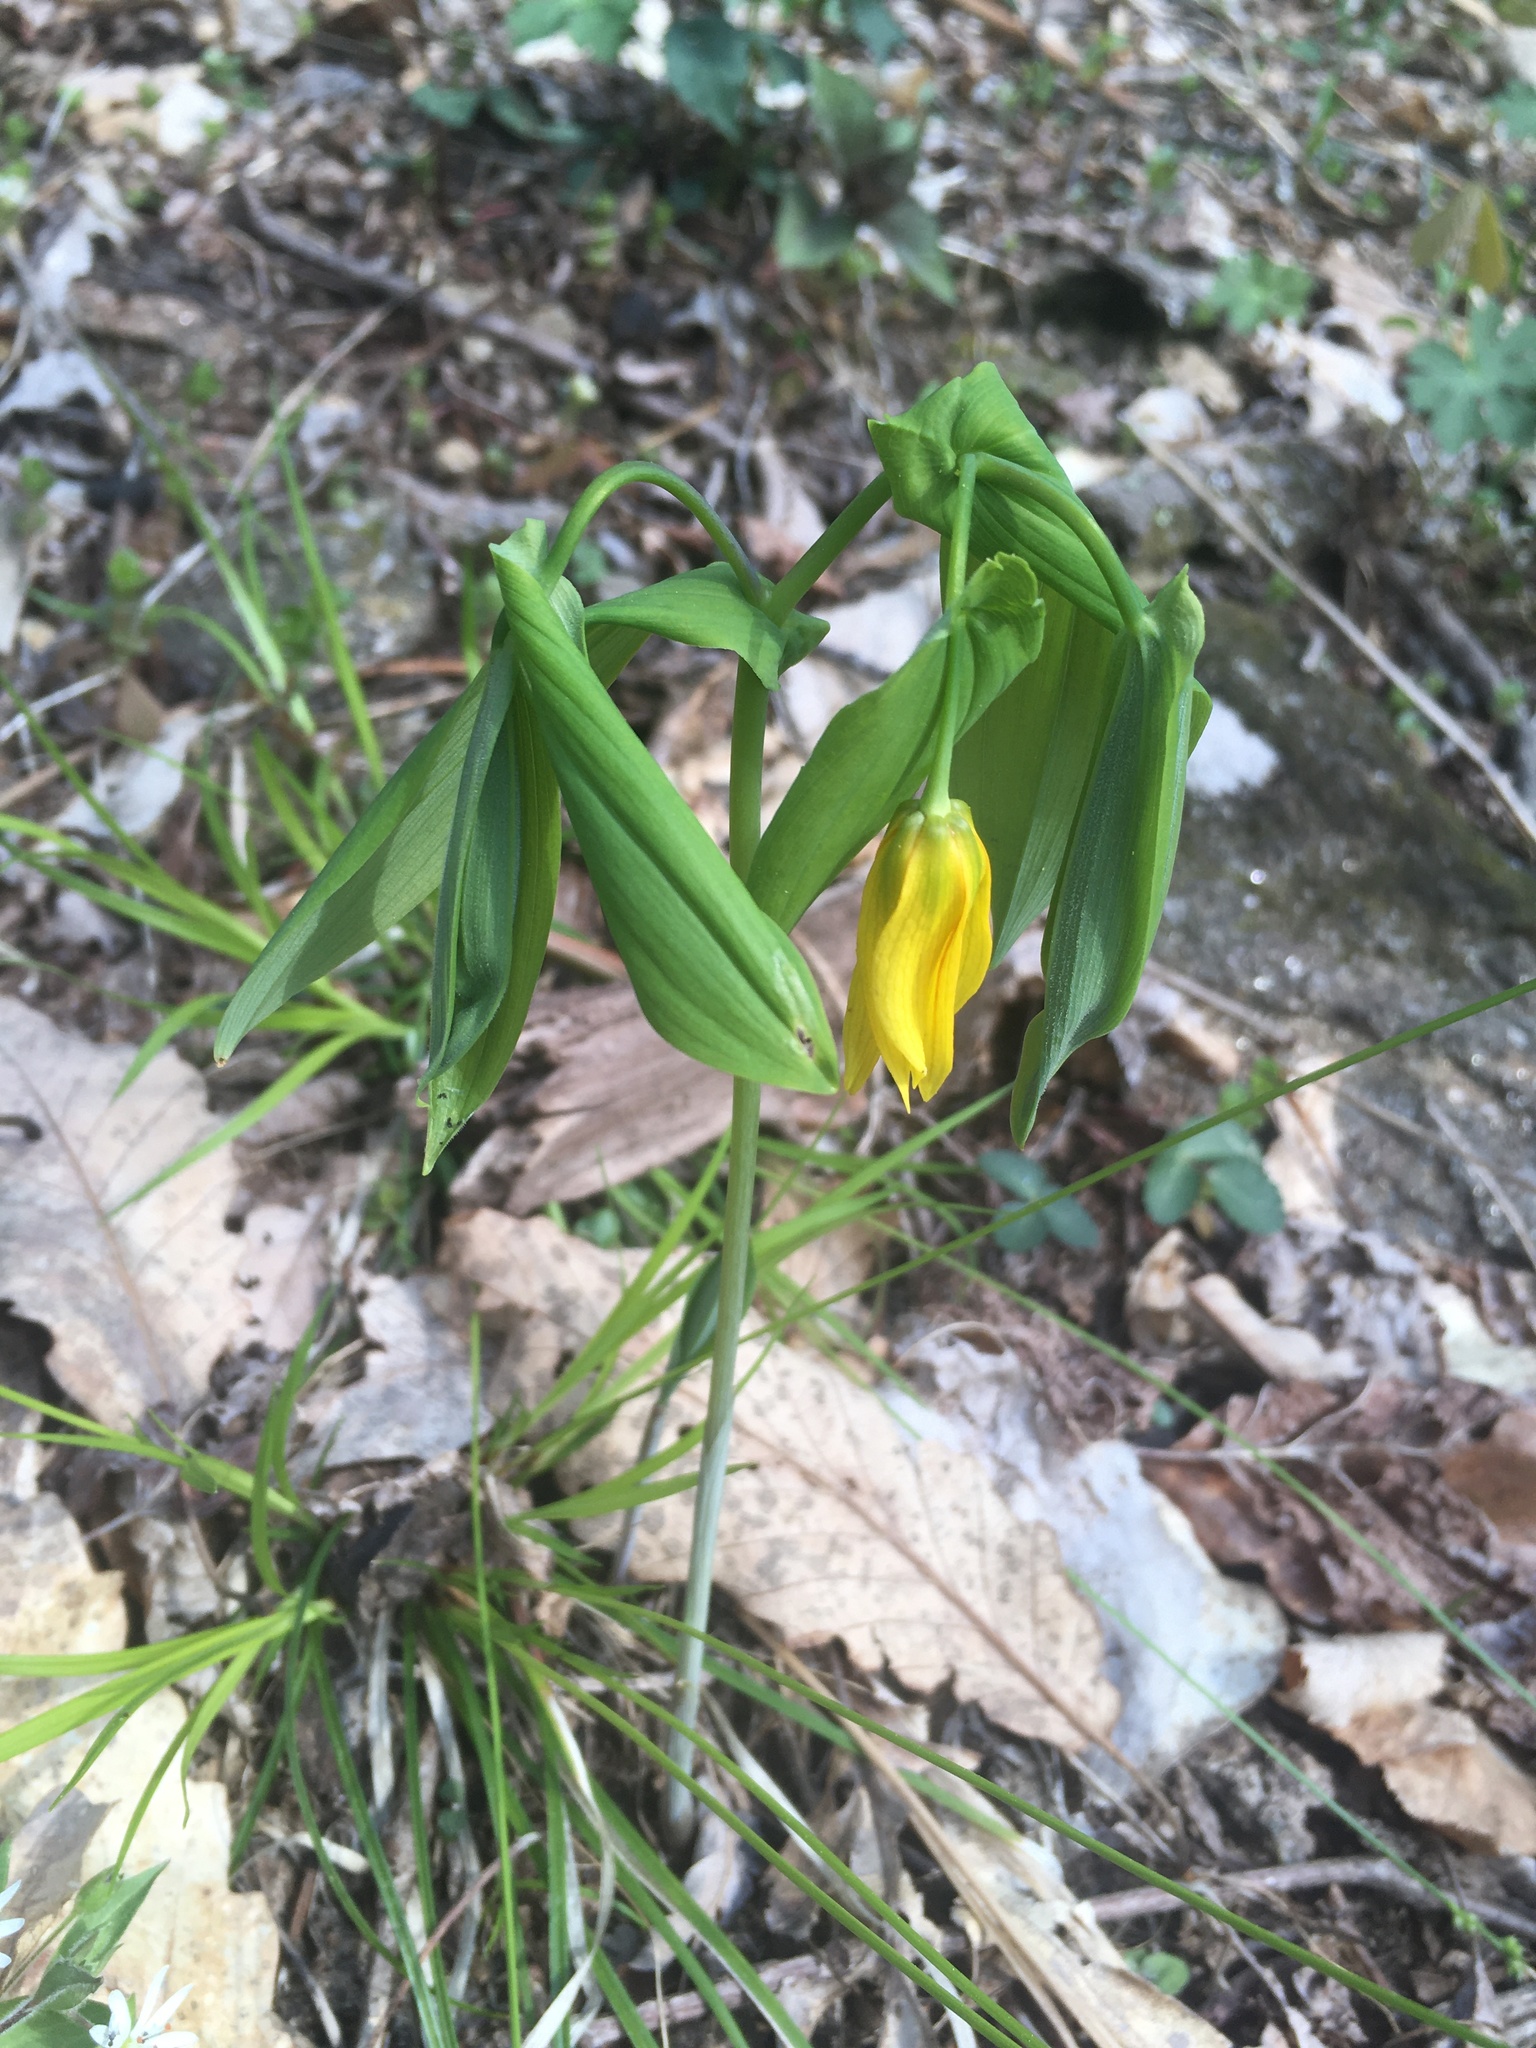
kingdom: Plantae
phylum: Tracheophyta
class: Liliopsida
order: Liliales
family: Colchicaceae
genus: Uvularia
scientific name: Uvularia grandiflora
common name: Bellwort
